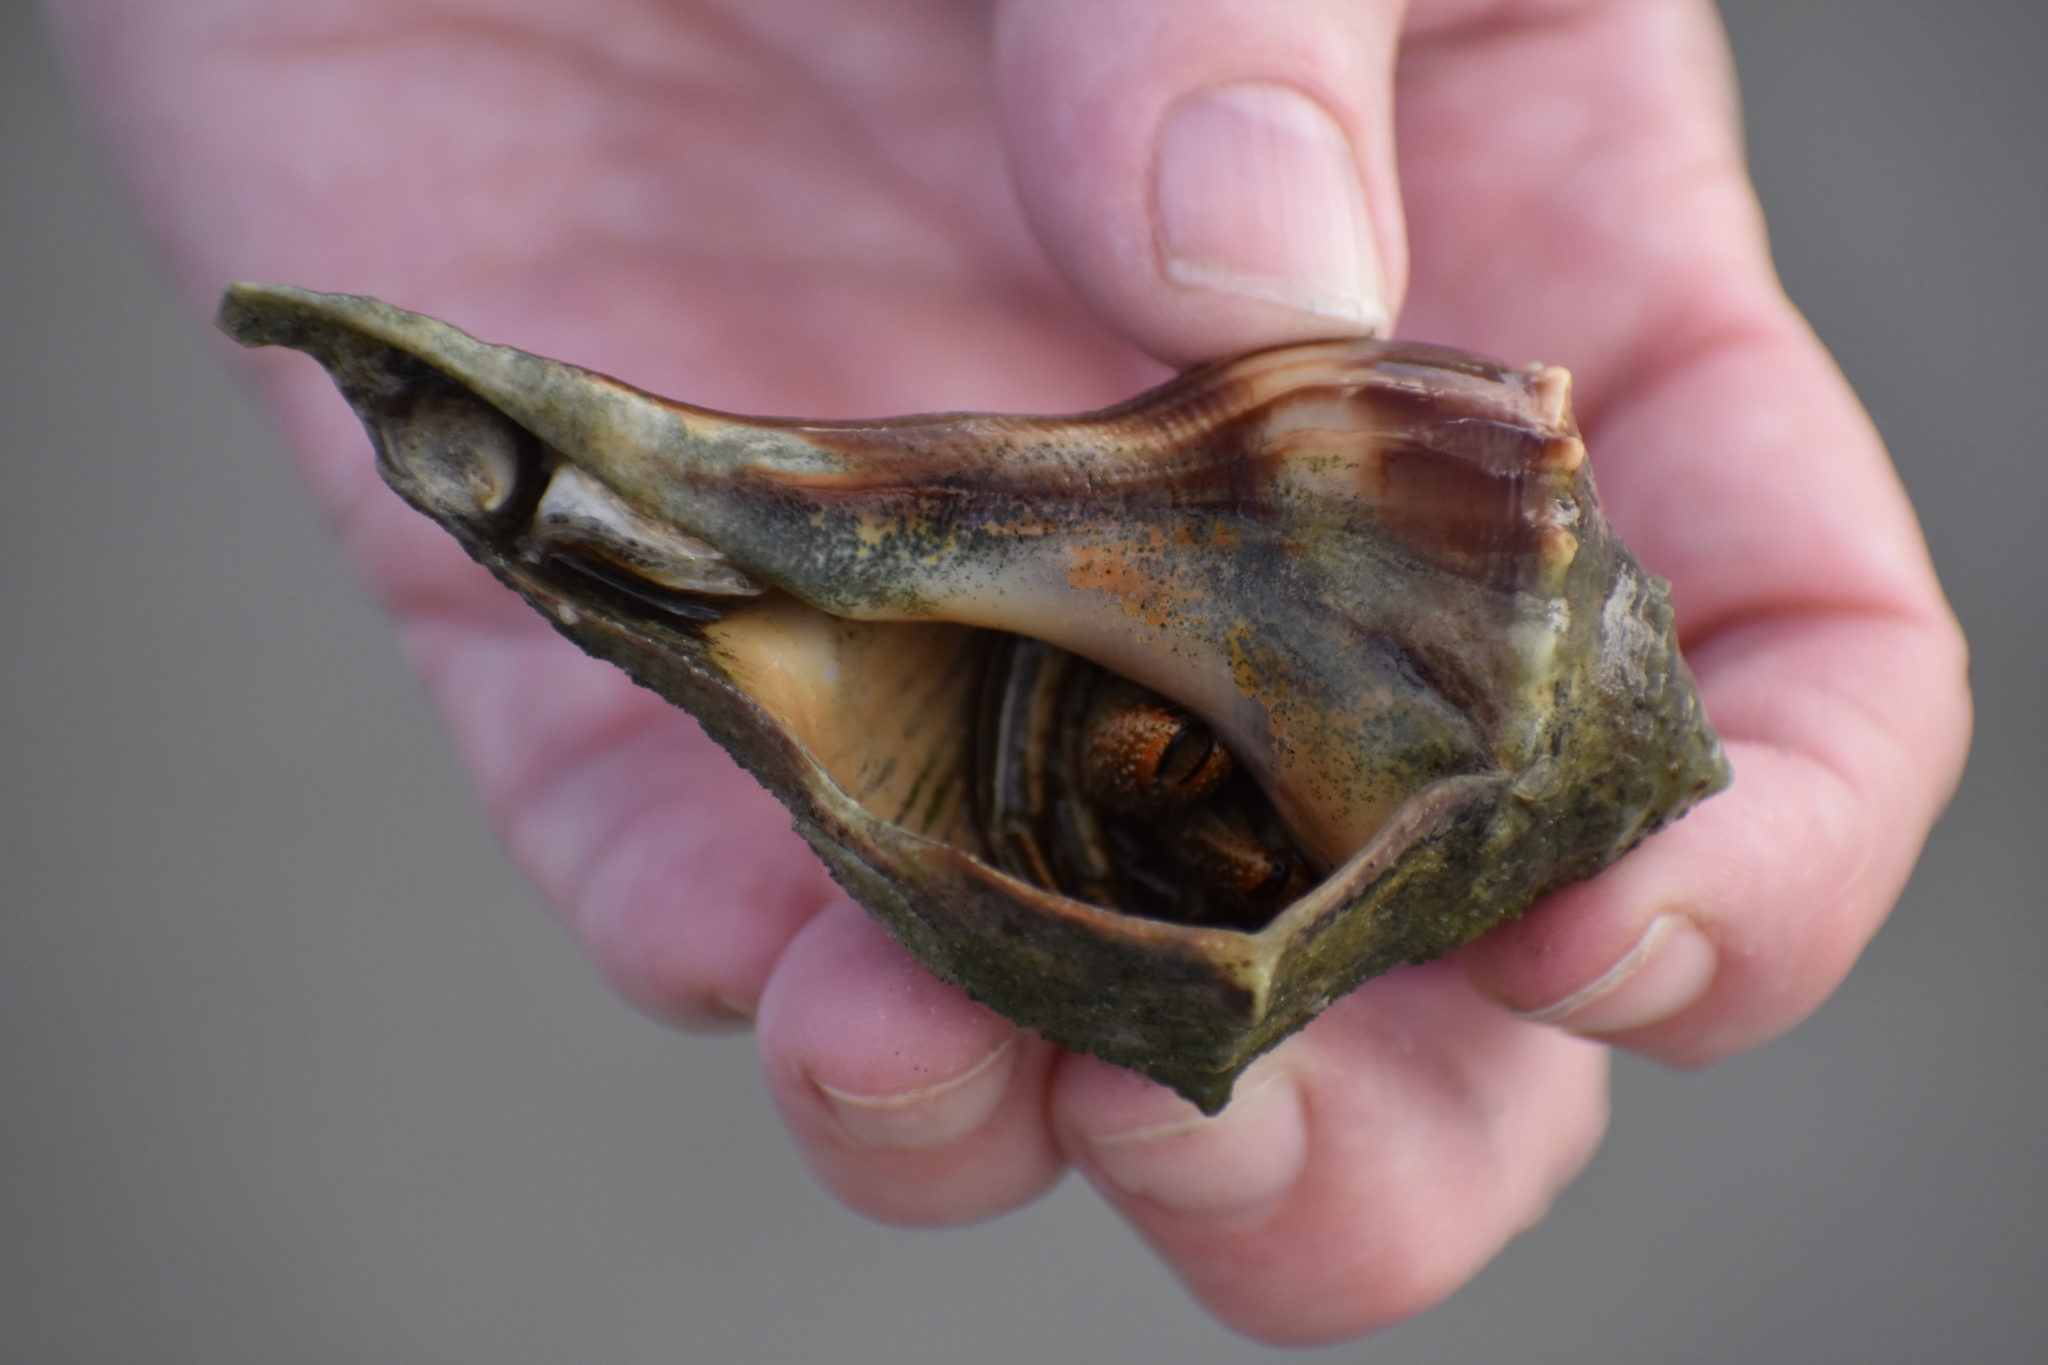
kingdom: Animalia
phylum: Mollusca
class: Gastropoda
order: Neogastropoda
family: Busyconidae
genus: Busycon
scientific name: Busycon carica
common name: Knobbed whelk
